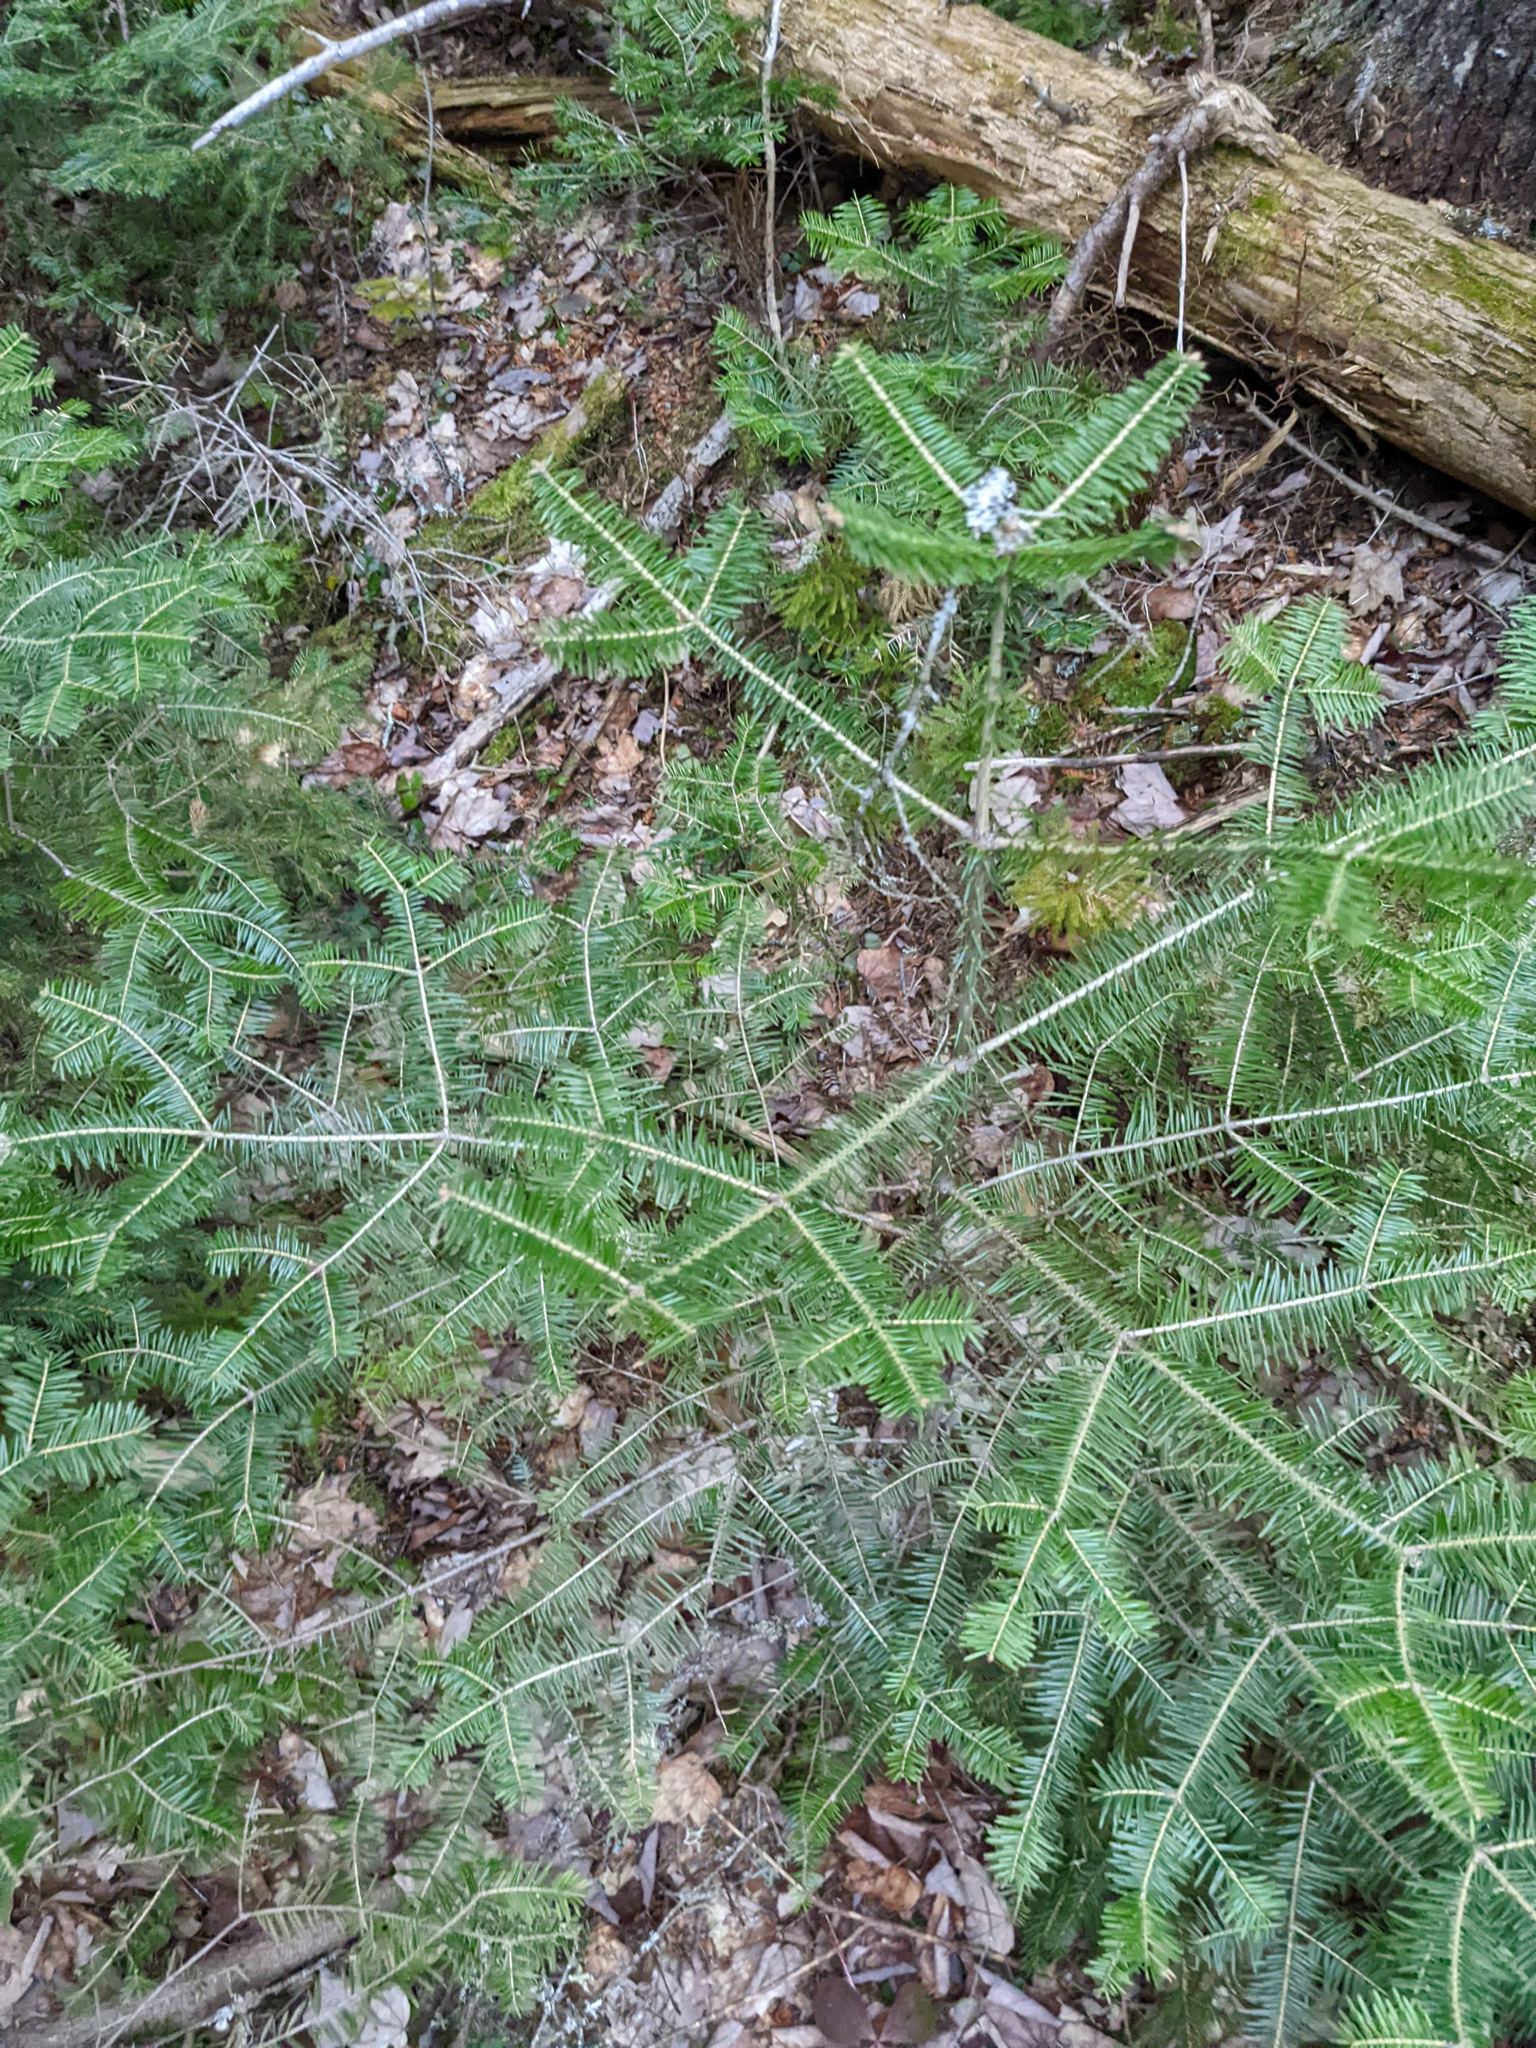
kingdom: Plantae
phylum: Tracheophyta
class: Pinopsida
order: Pinales
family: Pinaceae
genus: Abies
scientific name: Abies balsamea
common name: Balsam fir
